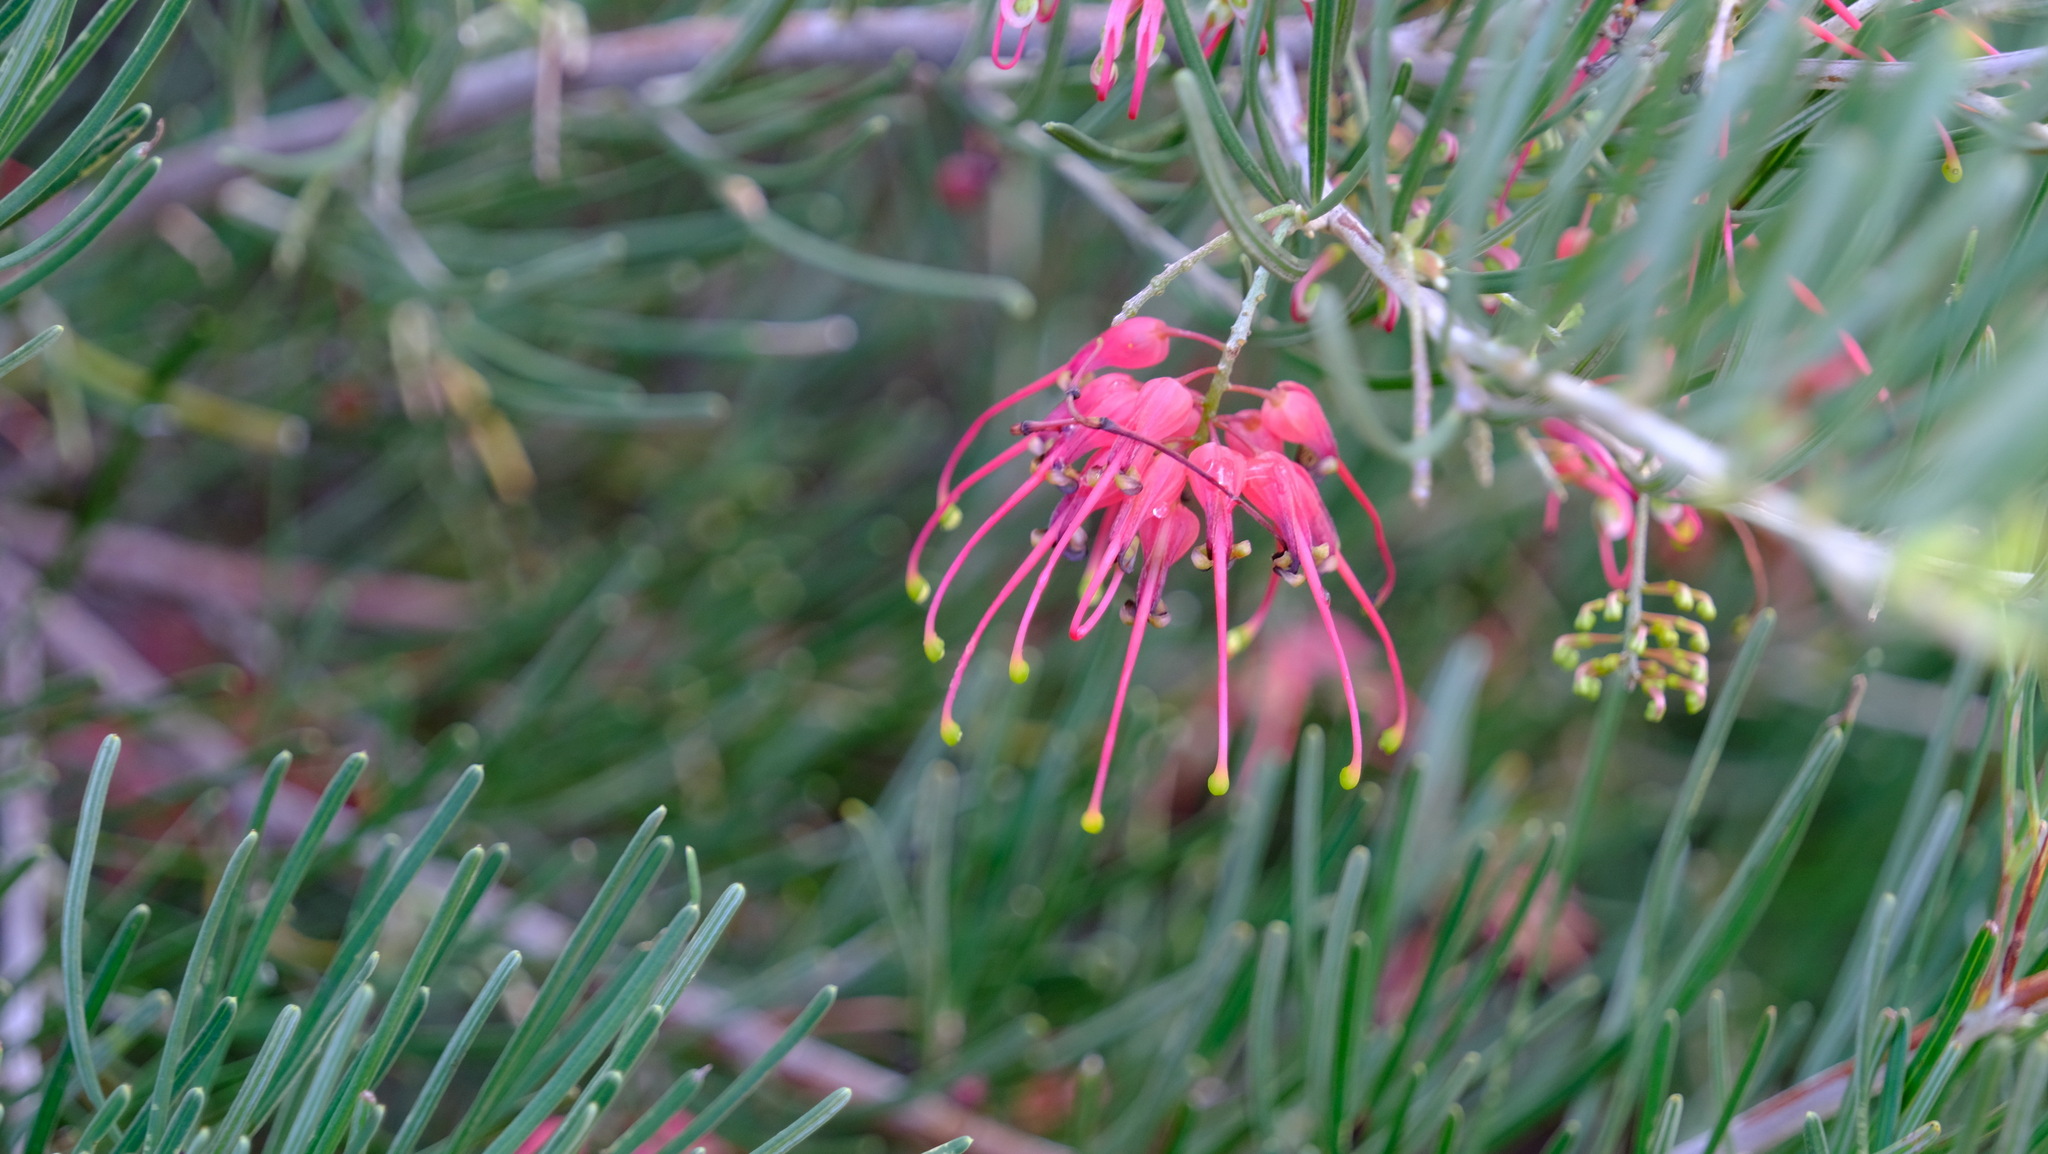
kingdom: Plantae
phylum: Tracheophyta
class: Magnoliopsida
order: Proteales
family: Proteaceae
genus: Grevillea
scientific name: Grevillea pinaster
